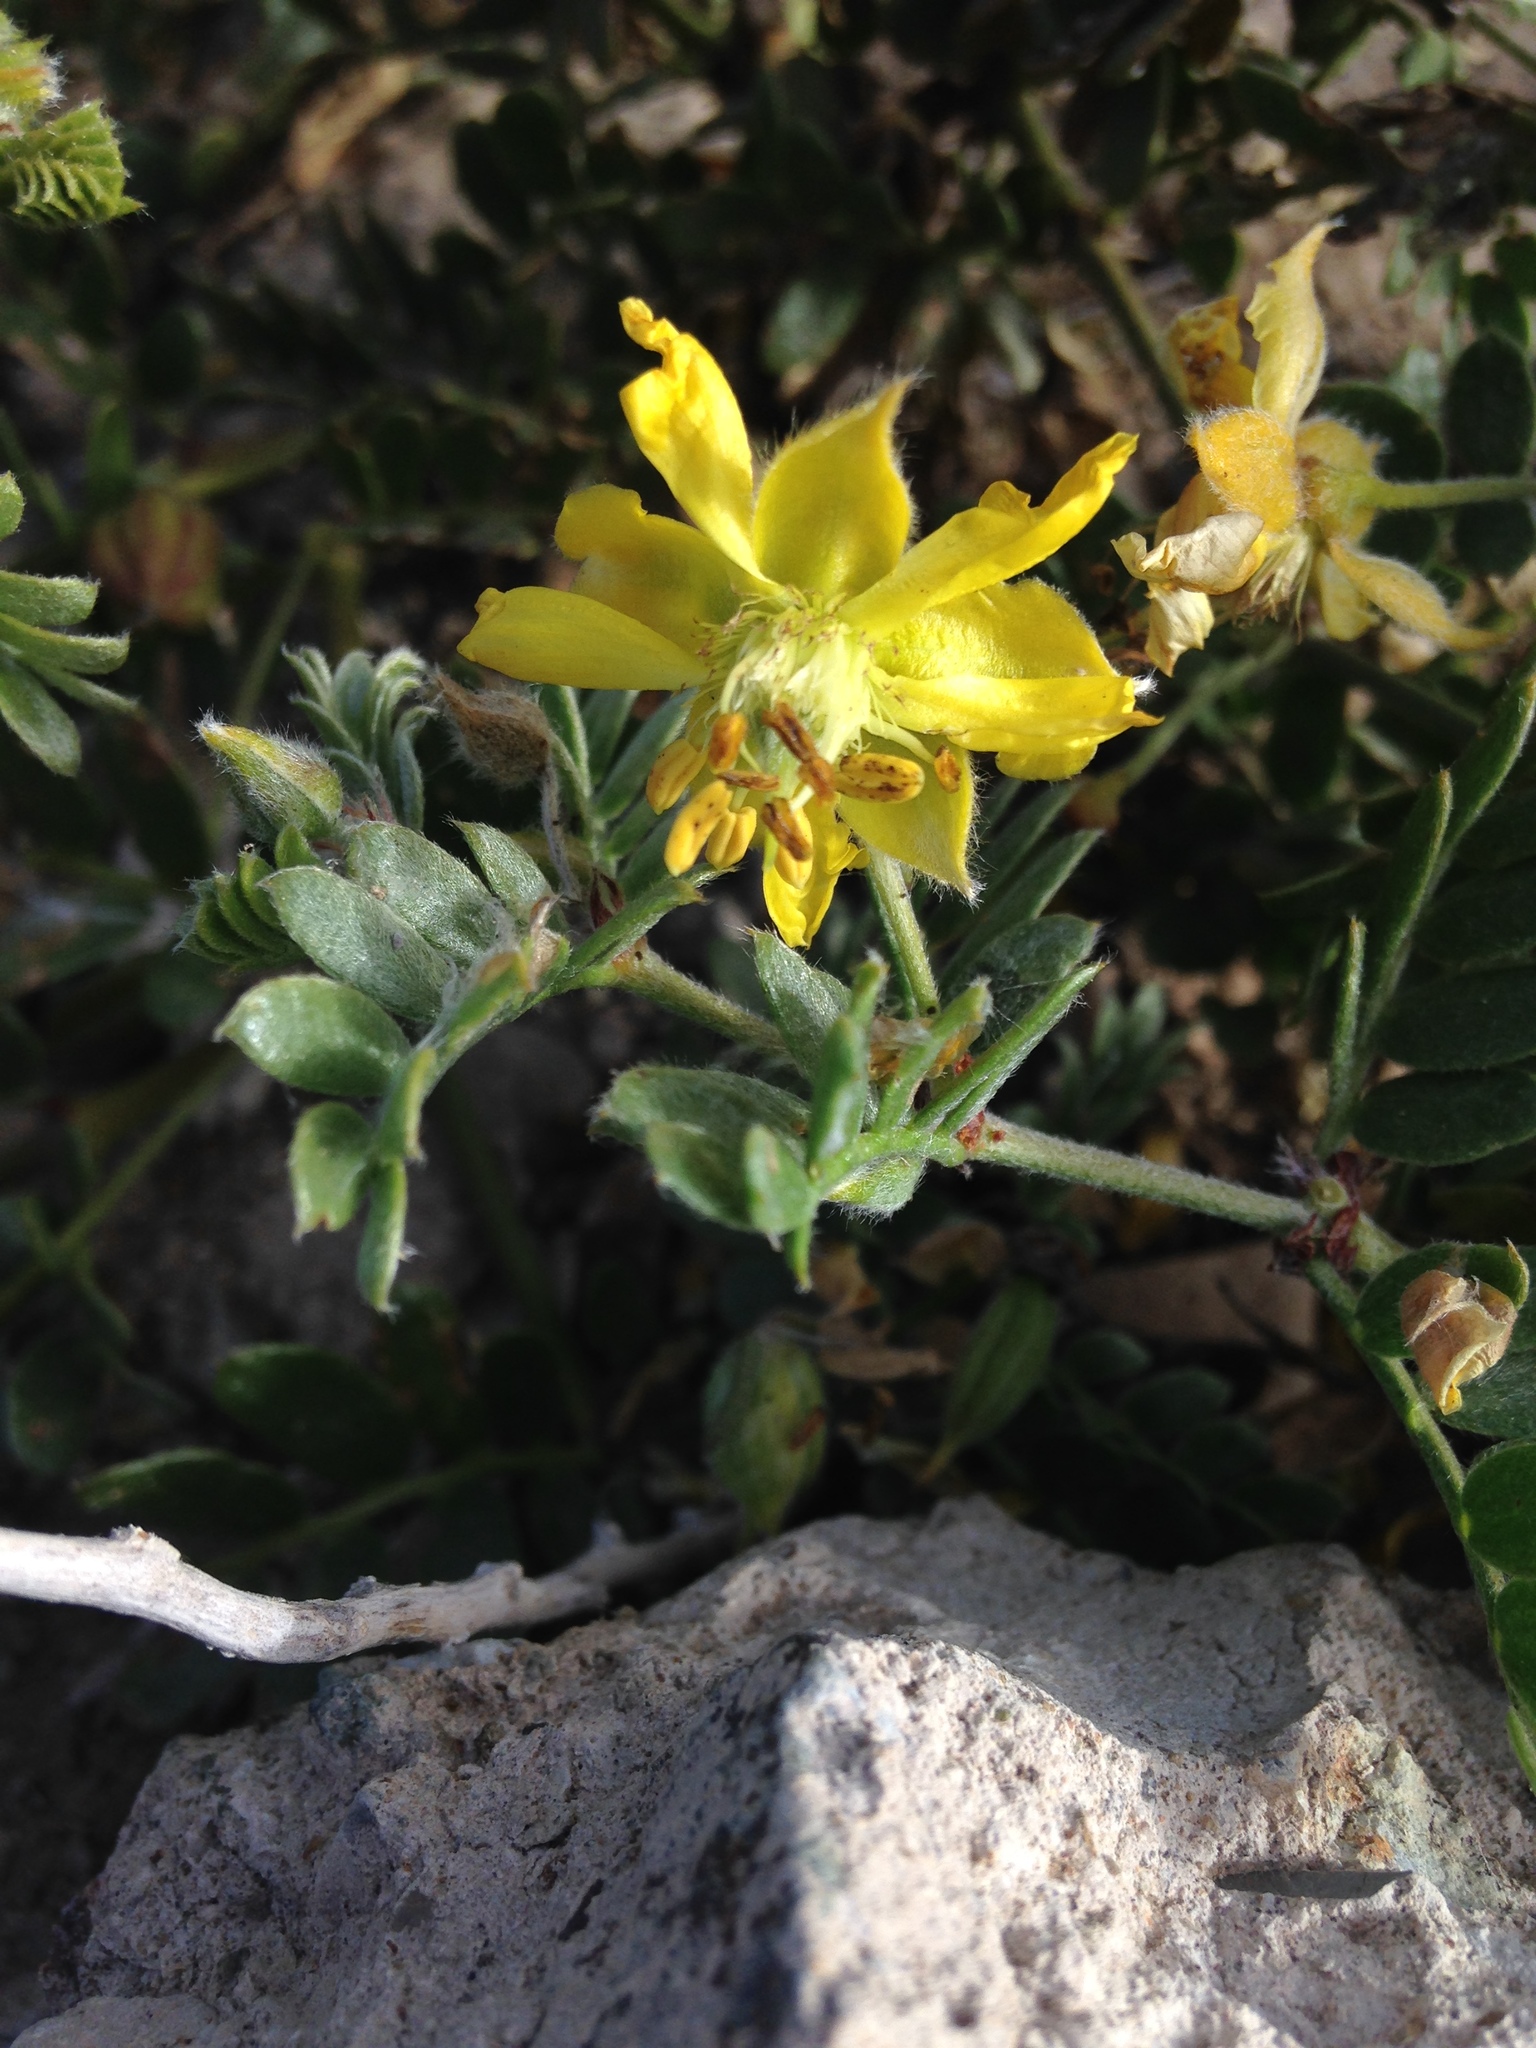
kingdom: Plantae
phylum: Tracheophyta
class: Magnoliopsida
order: Zygophyllales
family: Zygophyllaceae
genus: Pintoa
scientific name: Pintoa chilensis
